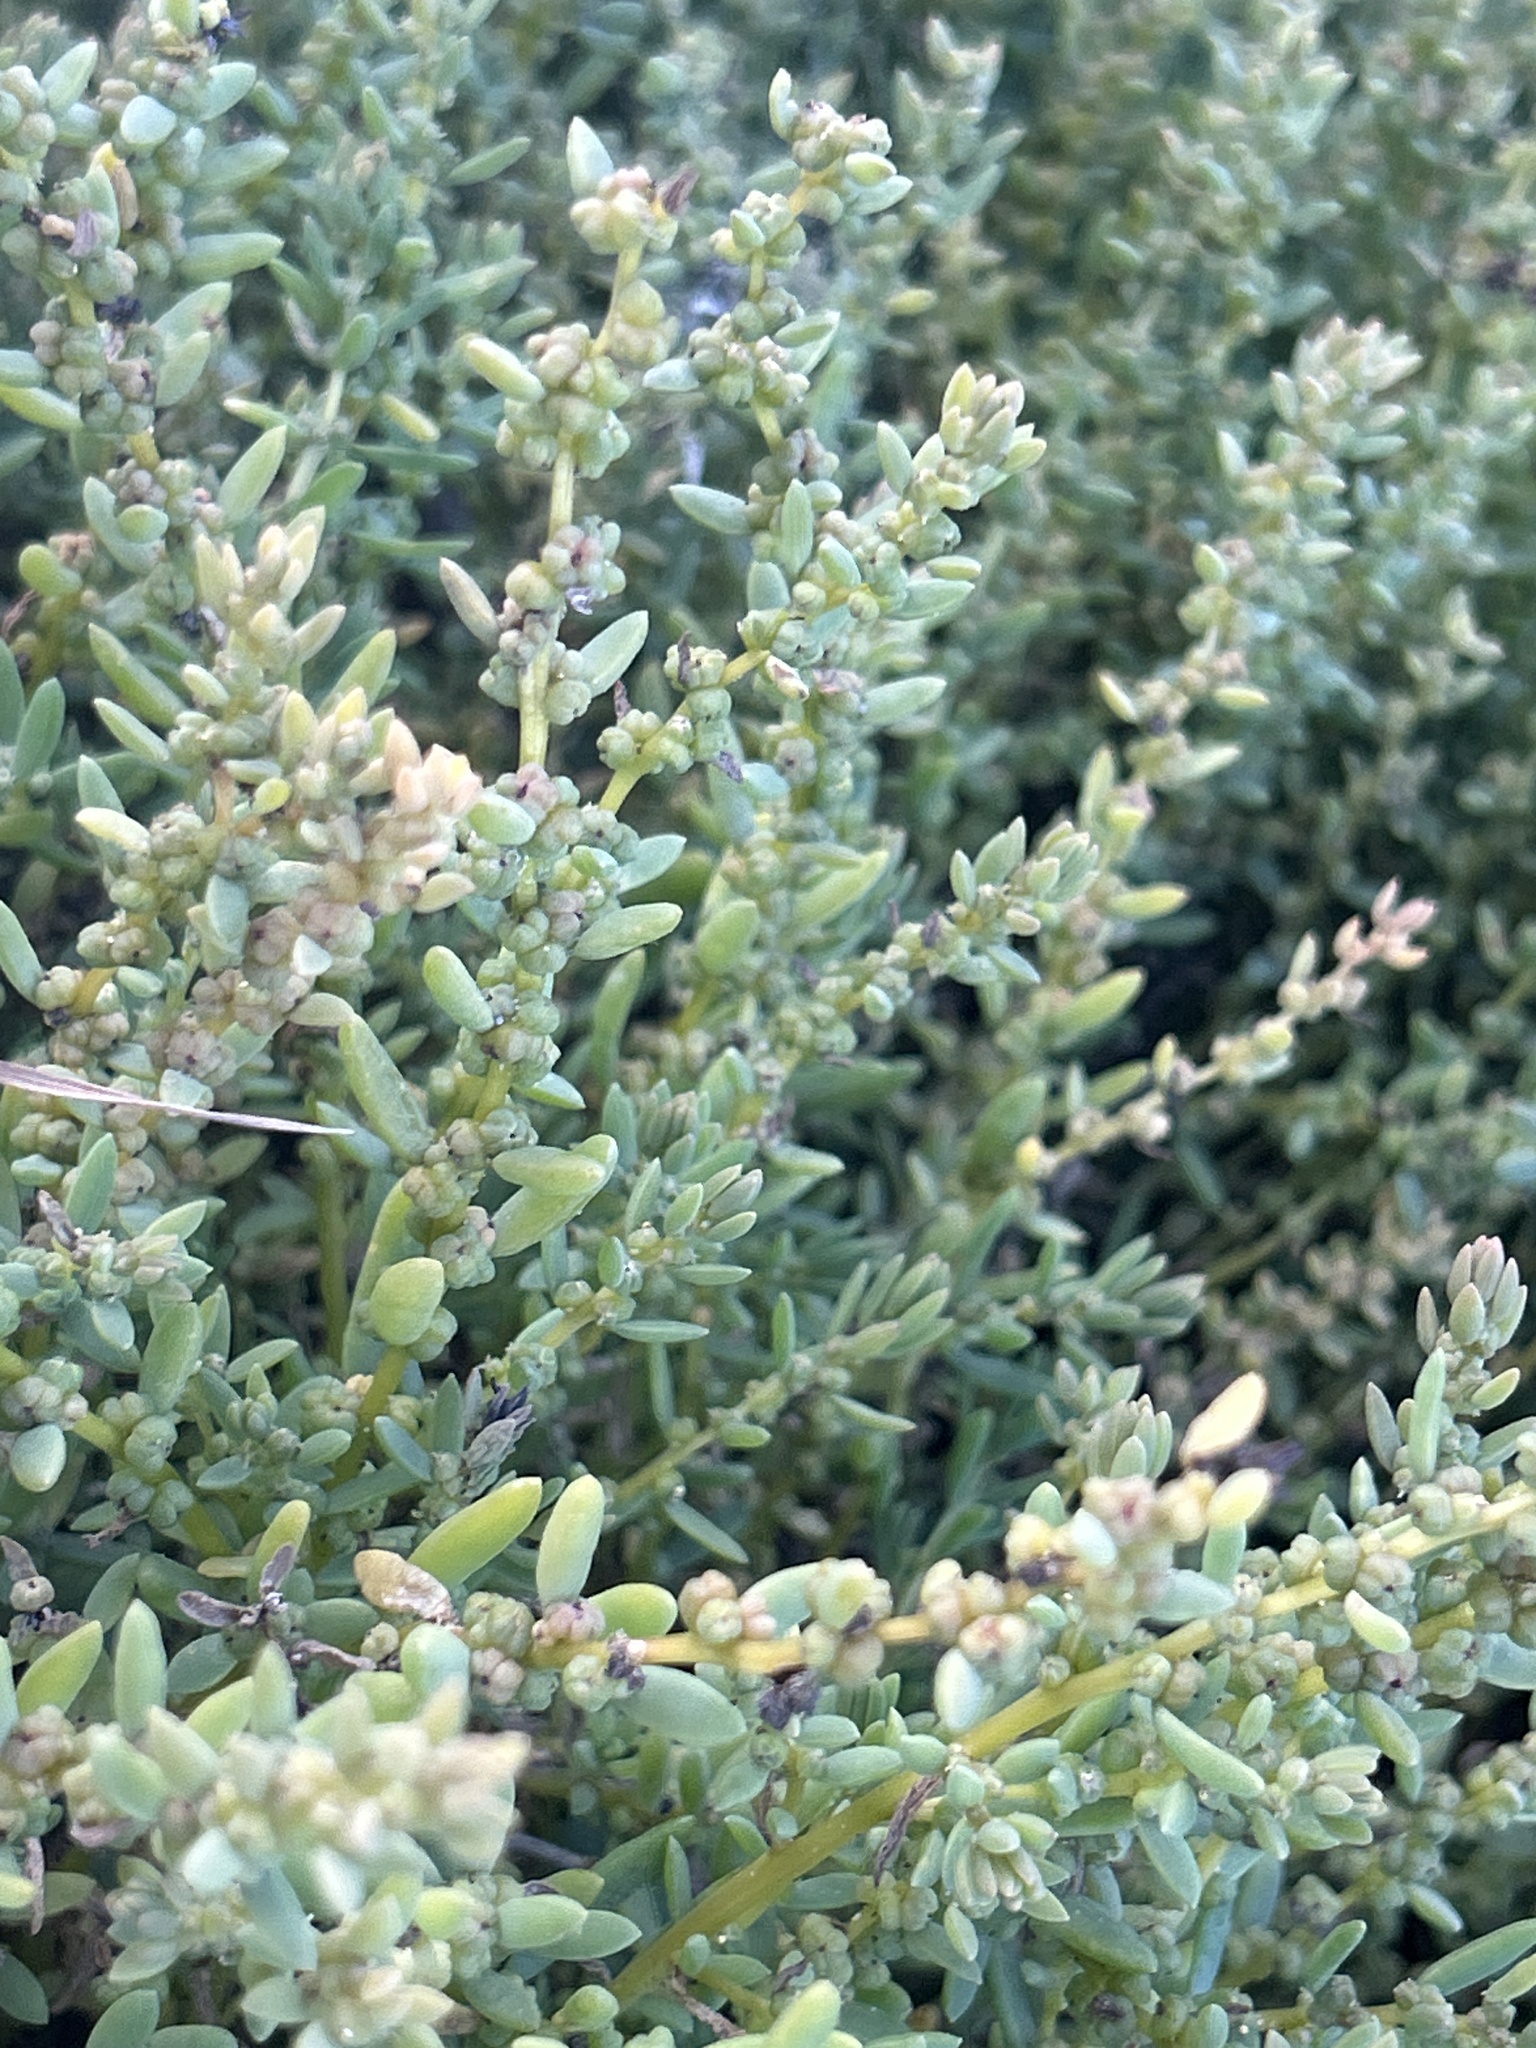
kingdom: Plantae
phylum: Tracheophyta
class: Magnoliopsida
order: Caryophyllales
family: Amaranthaceae
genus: Suaeda
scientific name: Suaeda novae-zelandiae
